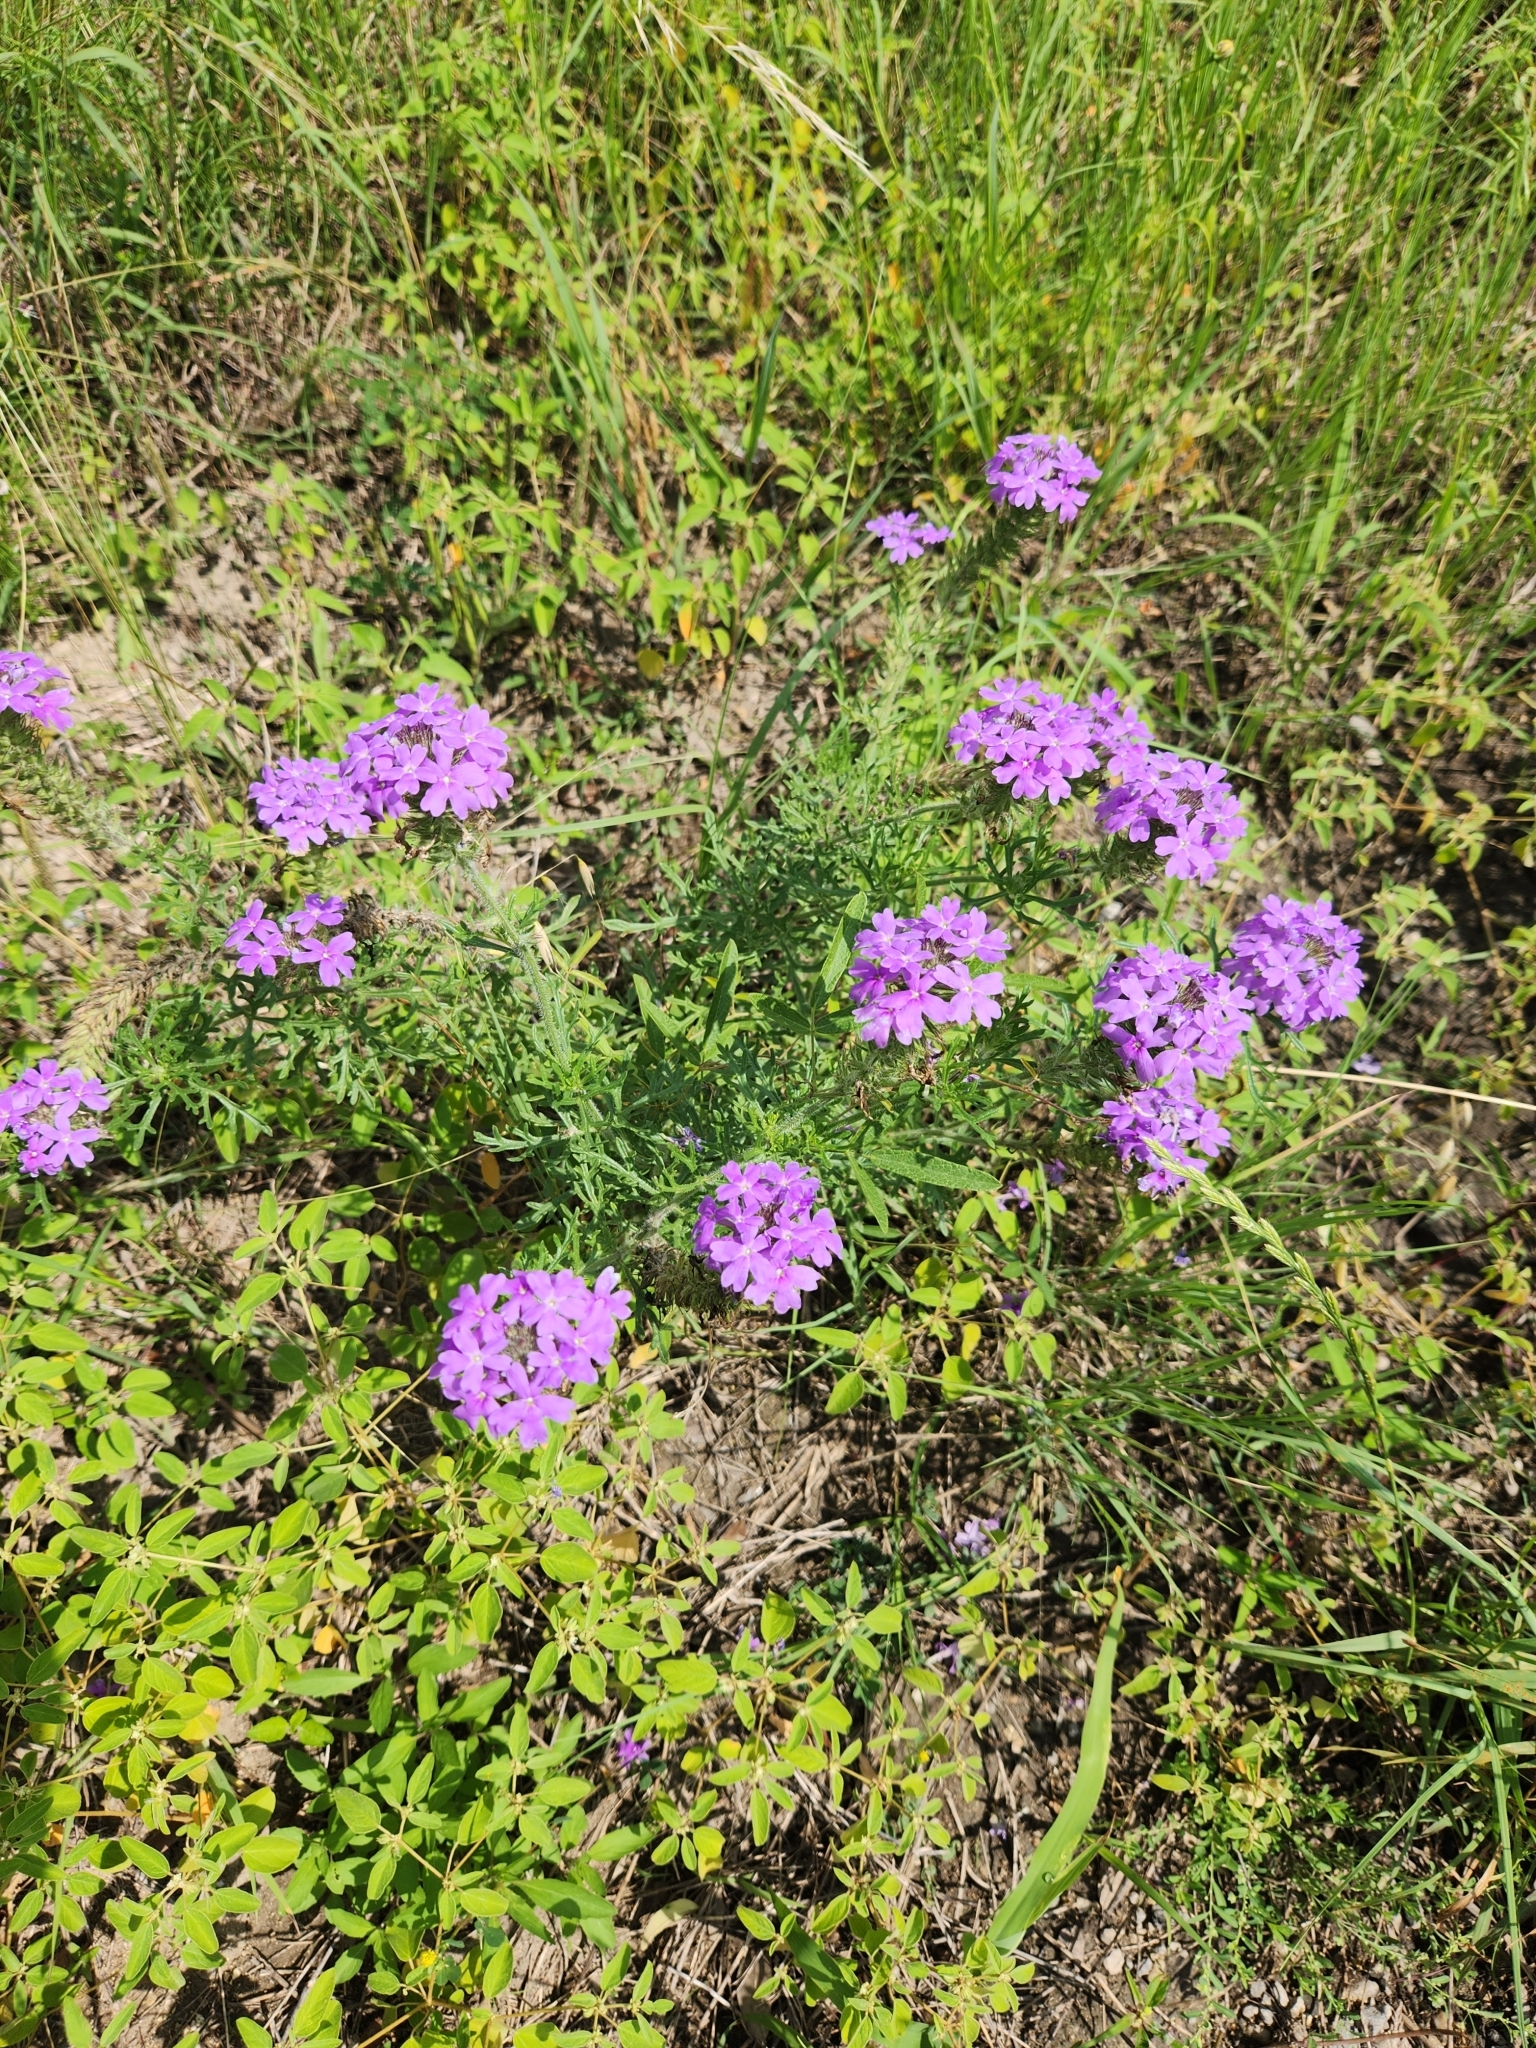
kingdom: Plantae
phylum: Tracheophyta
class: Magnoliopsida
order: Lamiales
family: Verbenaceae
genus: Verbena
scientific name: Verbena bipinnatifida
